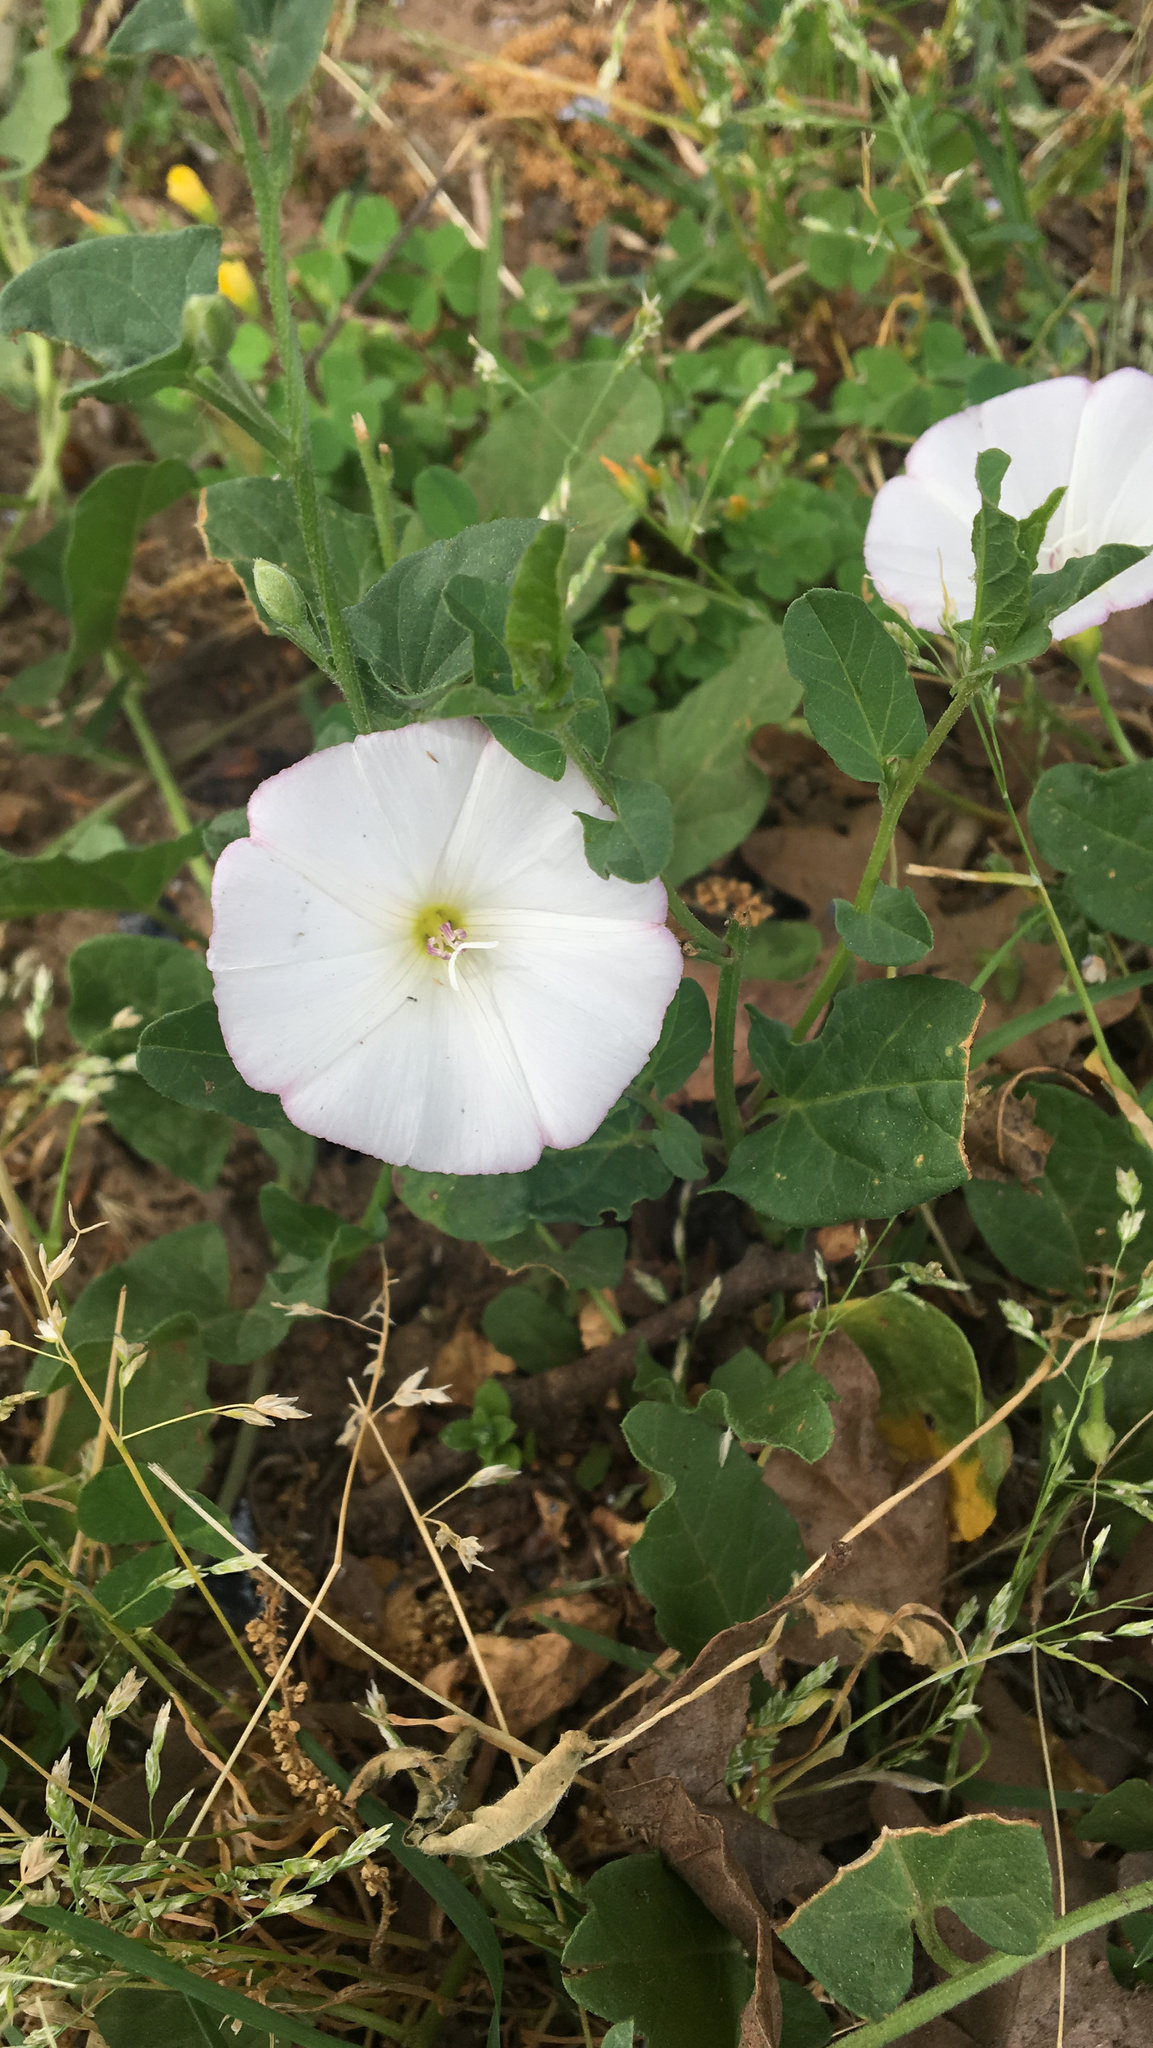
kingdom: Plantae
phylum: Tracheophyta
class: Magnoliopsida
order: Solanales
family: Convolvulaceae
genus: Convolvulus
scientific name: Convolvulus arvensis
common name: Field bindweed
